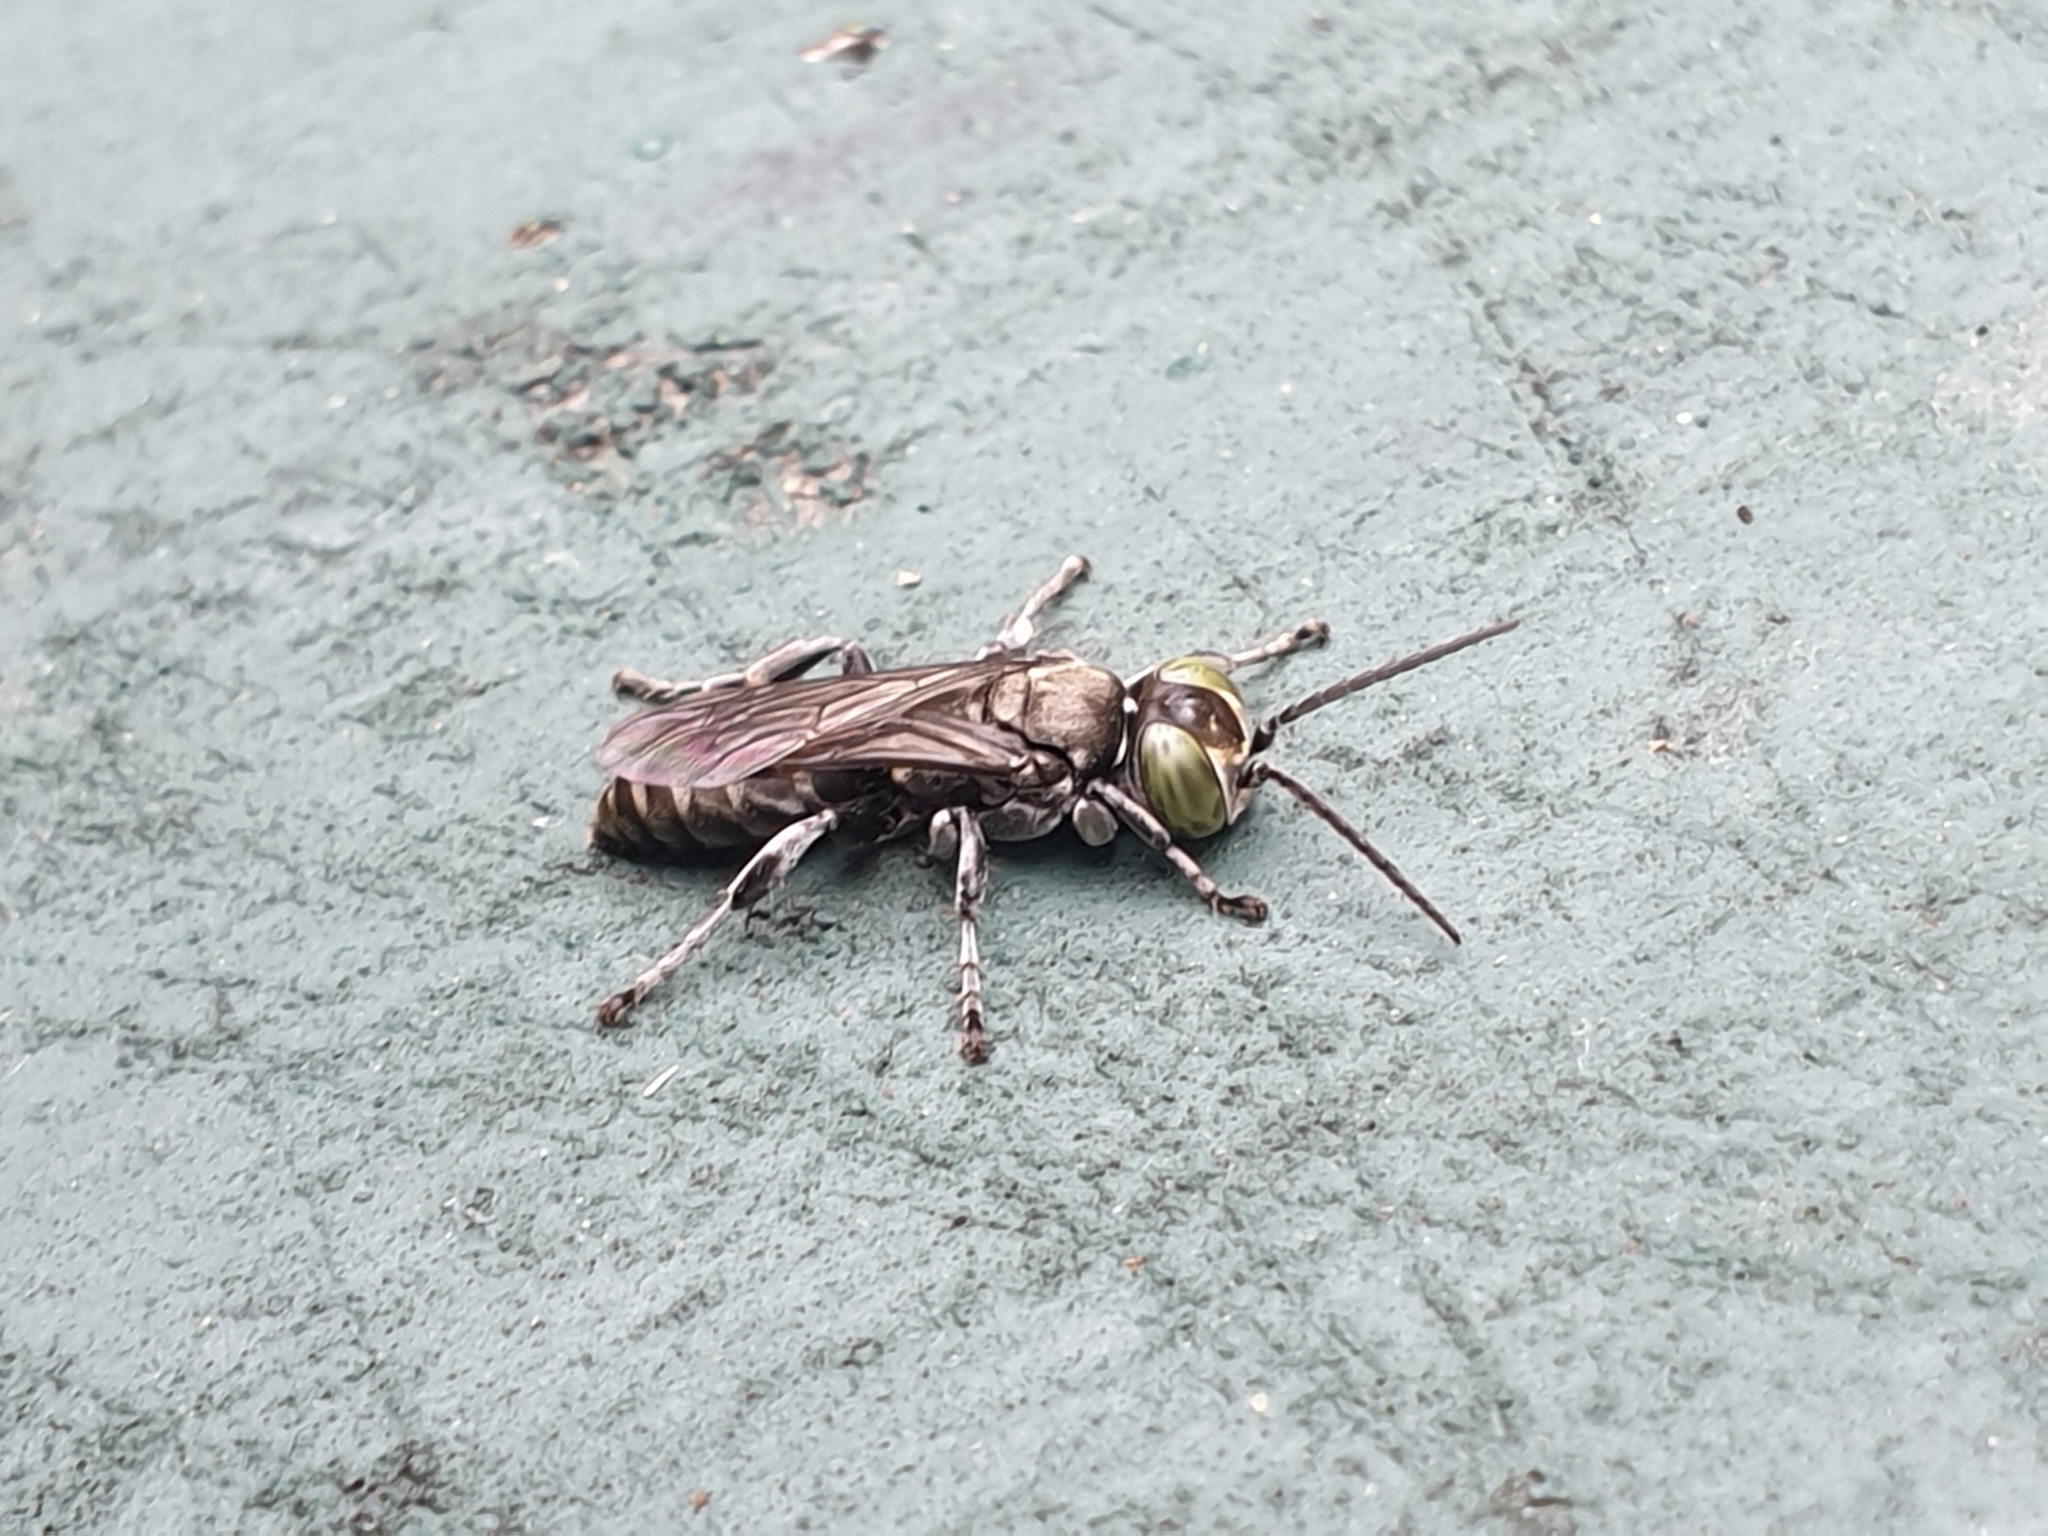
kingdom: Animalia
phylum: Arthropoda
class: Insecta
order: Hymenoptera
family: Crabronidae
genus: Tachysphex
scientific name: Tachysphex nigerrimus
